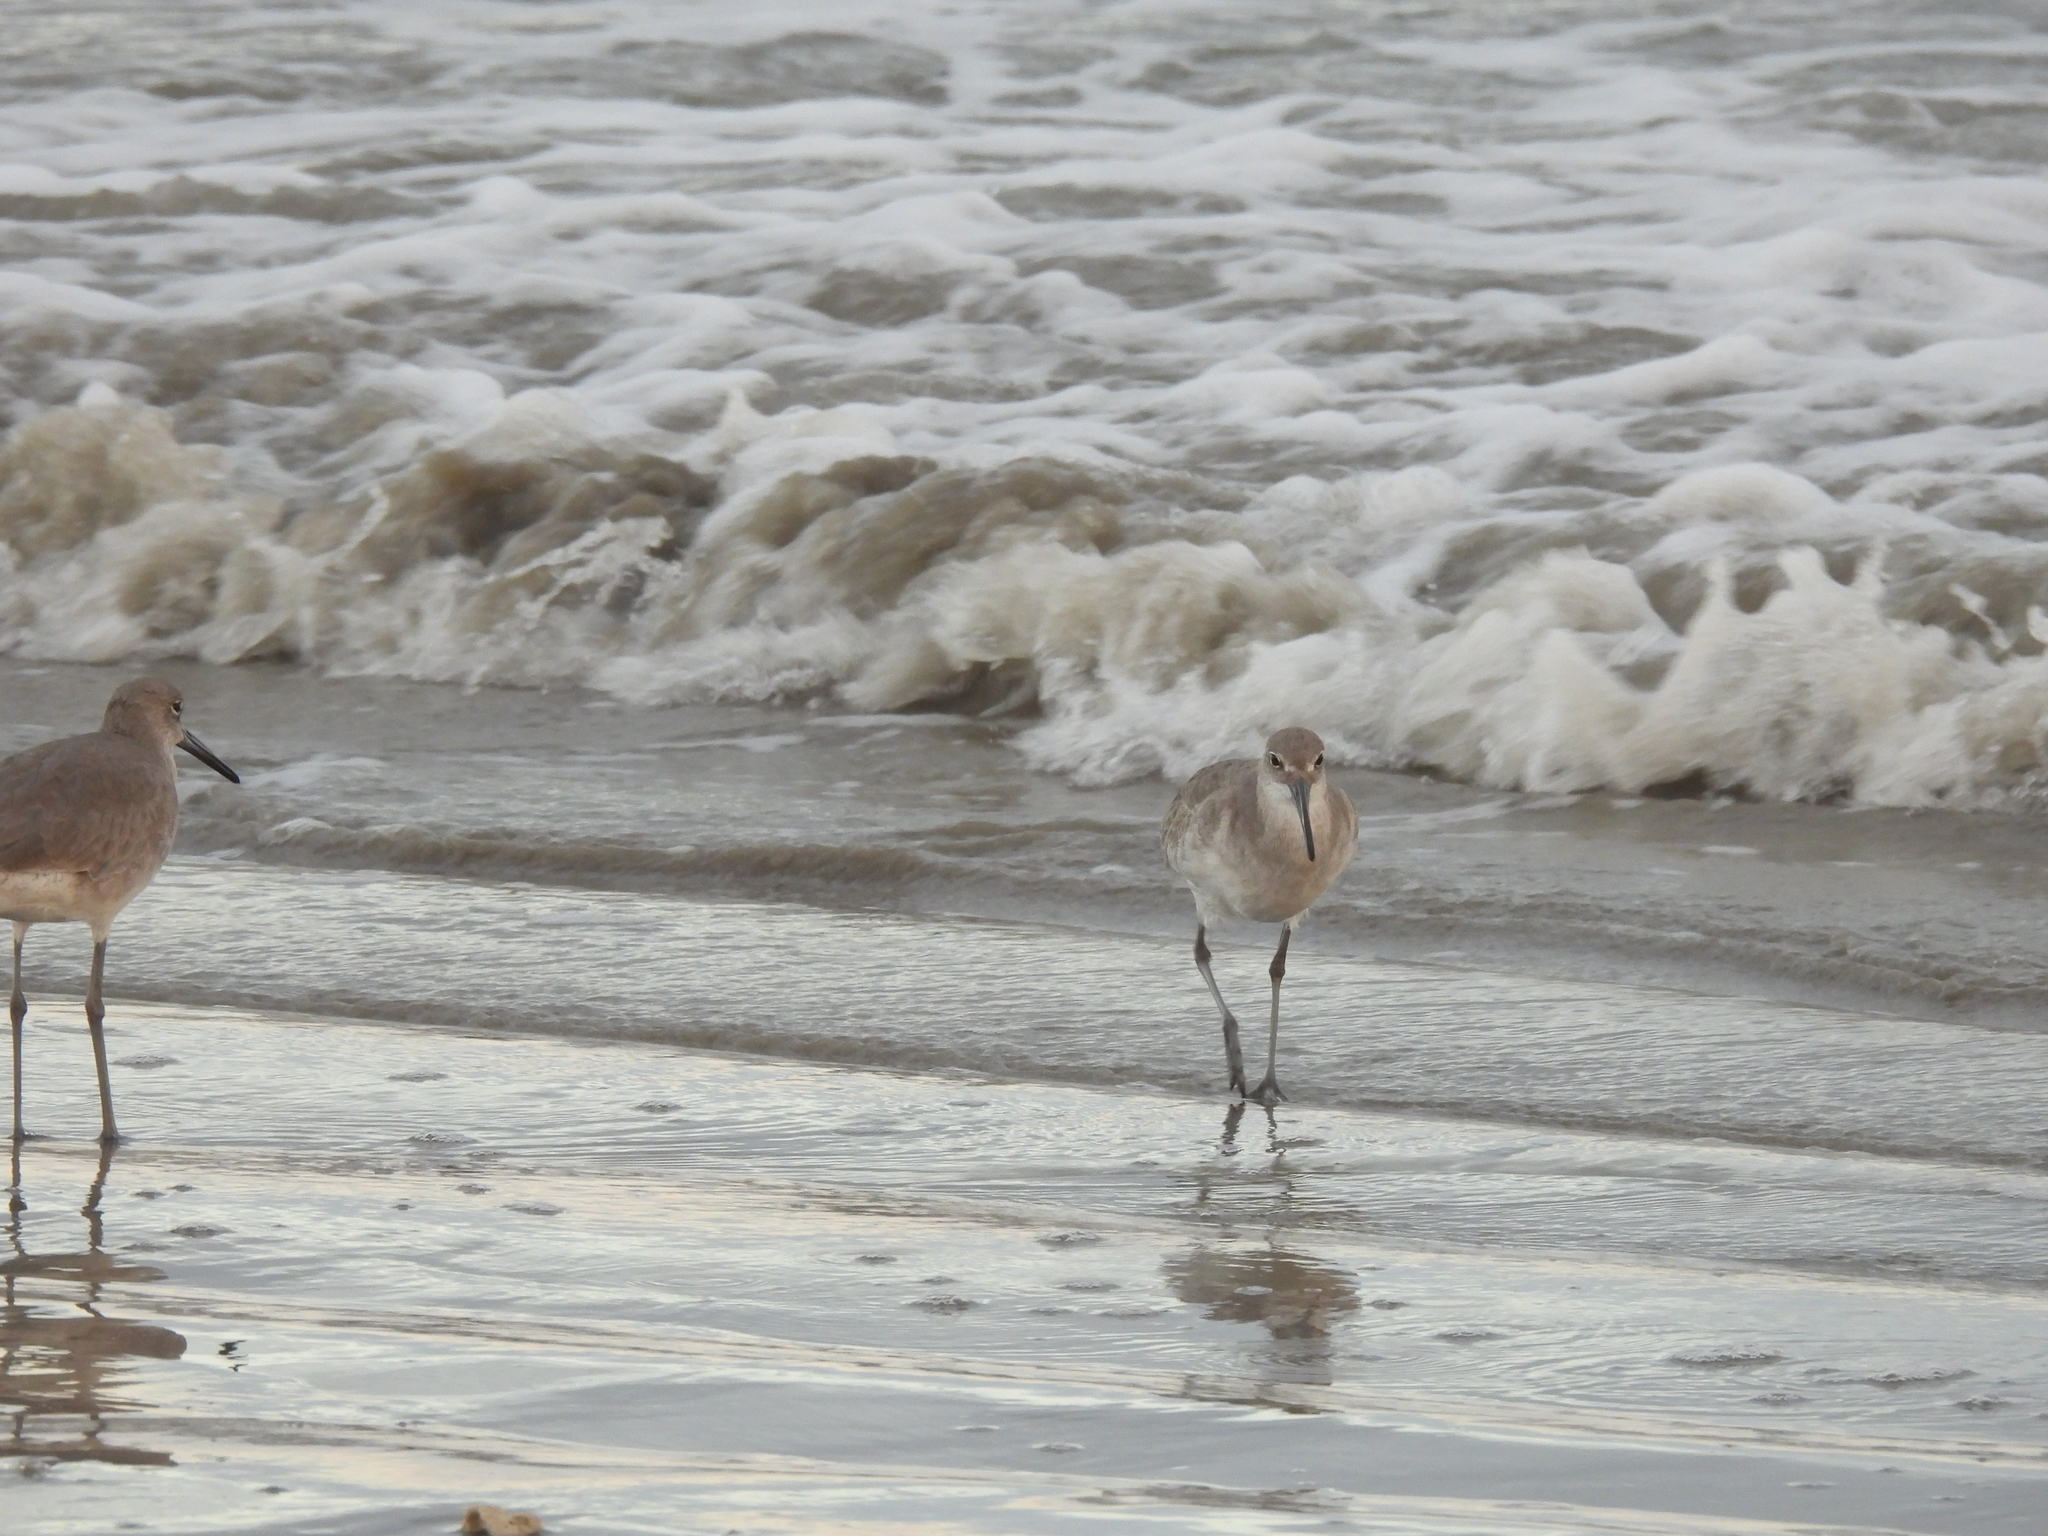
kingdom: Animalia
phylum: Chordata
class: Aves
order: Charadriiformes
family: Scolopacidae
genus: Tringa
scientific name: Tringa semipalmata
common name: Willet
